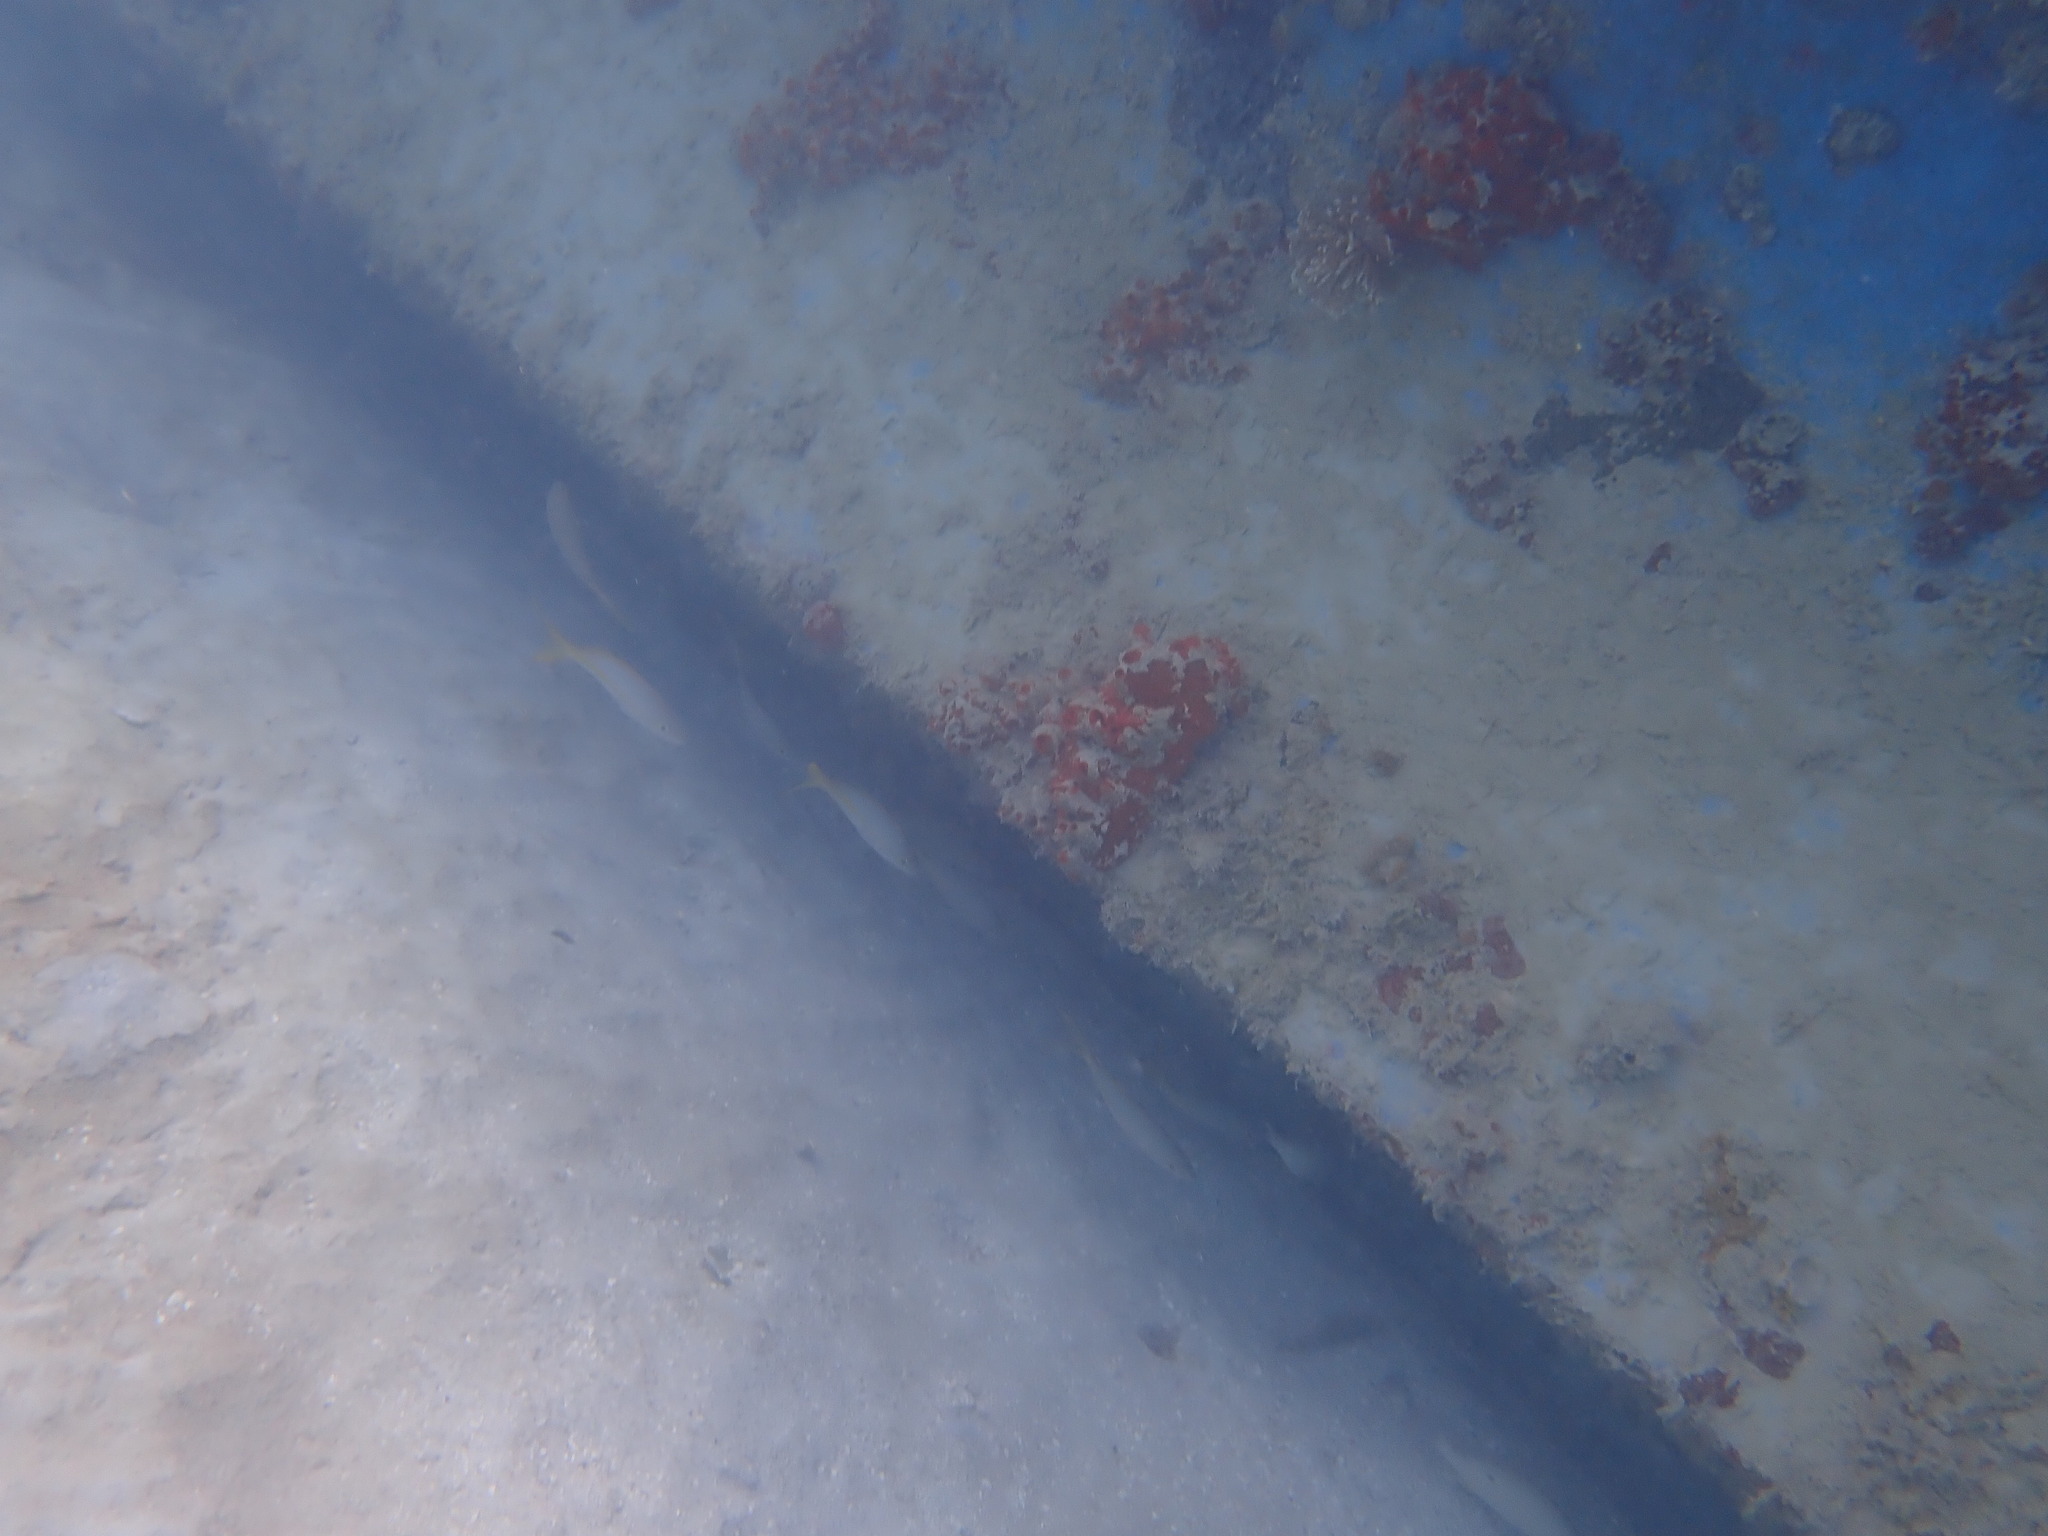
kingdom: Animalia
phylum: Chordata
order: Perciformes
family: Lutjanidae
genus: Ocyurus
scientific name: Ocyurus chrysurus
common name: Yellowtail snapper
